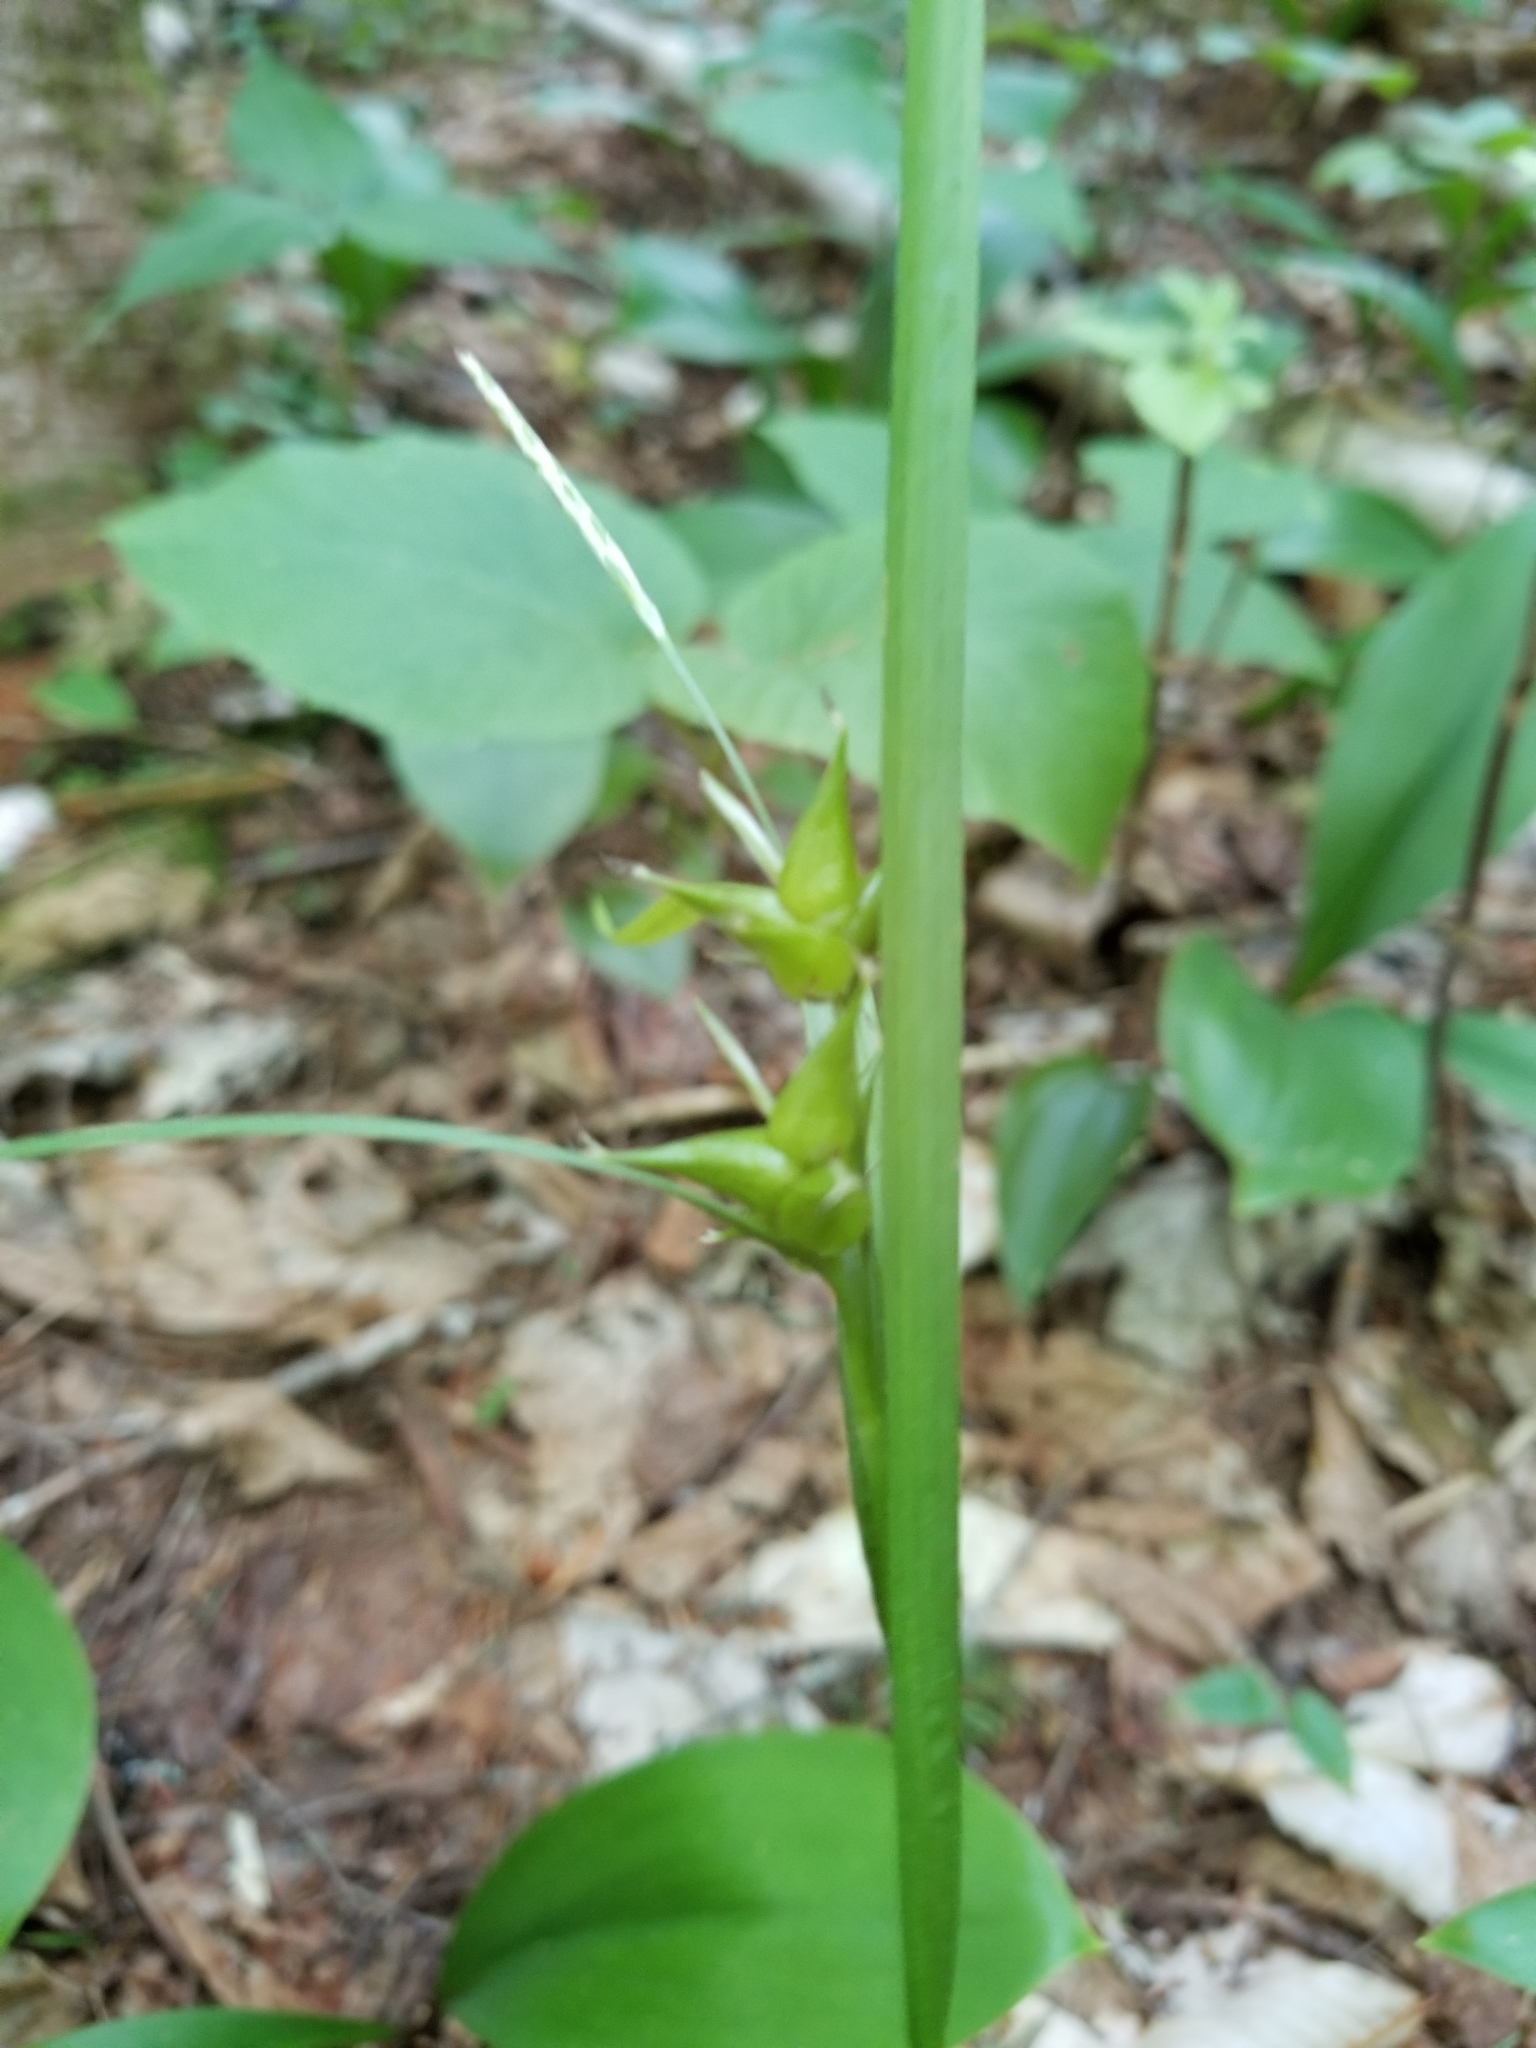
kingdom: Plantae
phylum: Tracheophyta
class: Liliopsida
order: Poales
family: Cyperaceae
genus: Carex
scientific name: Carex intumescens
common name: Greater bladder sedge
